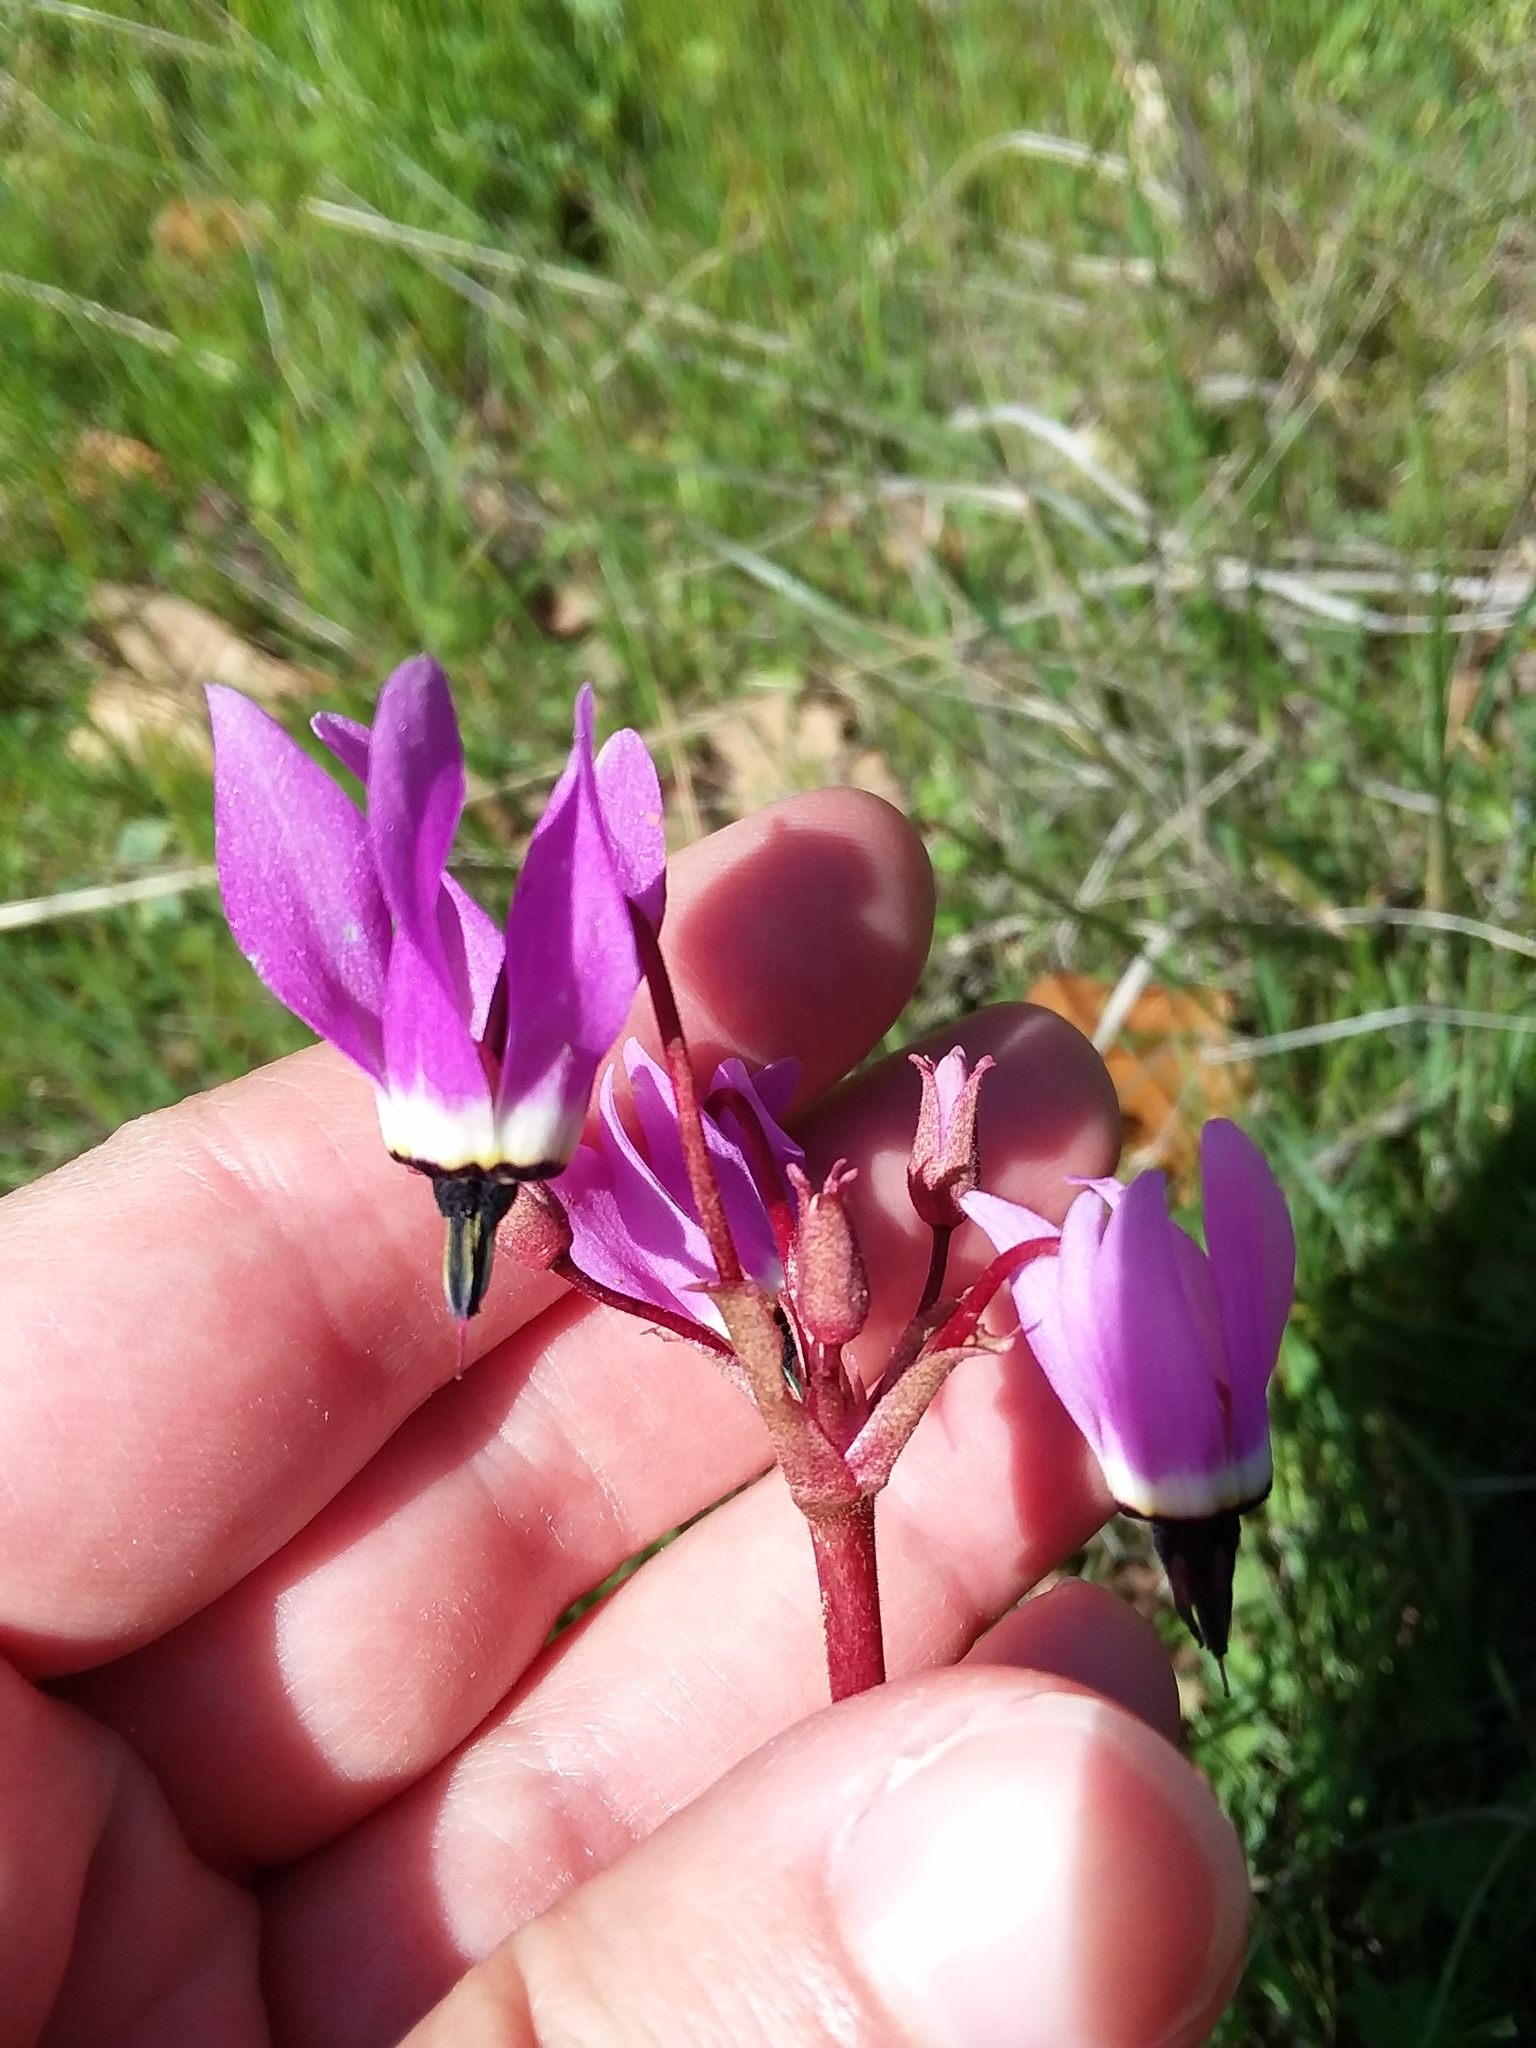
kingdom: Plantae
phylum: Tracheophyta
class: Magnoliopsida
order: Ericales
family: Primulaceae
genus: Dodecatheon
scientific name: Dodecatheon hendersonii
